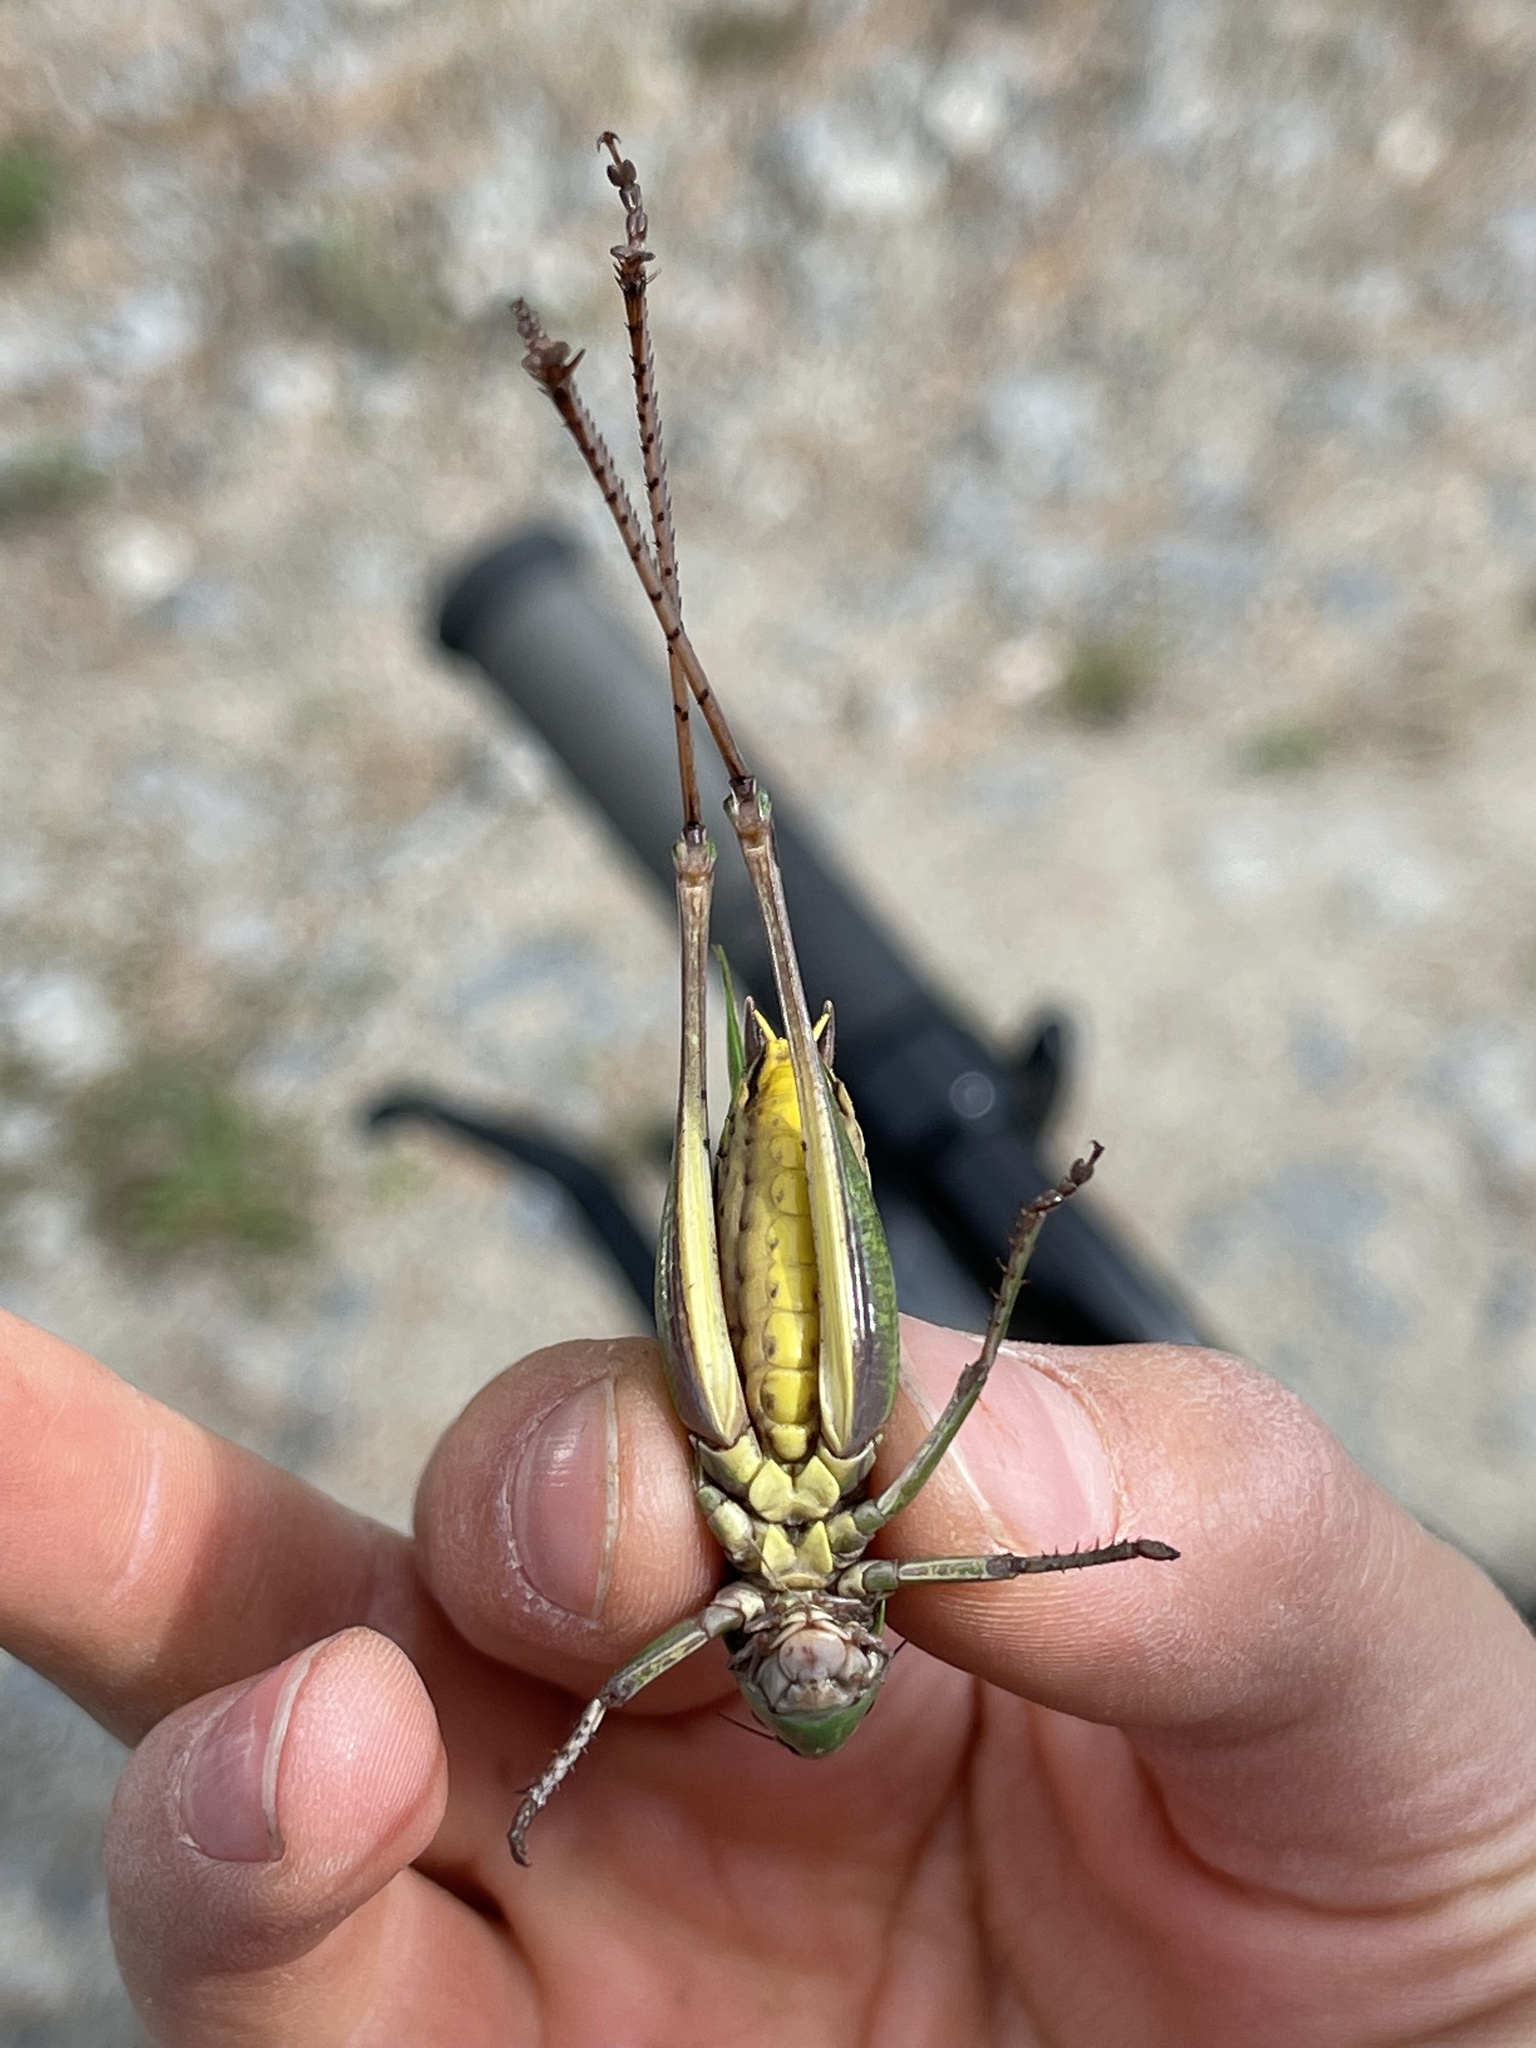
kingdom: Animalia
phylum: Arthropoda
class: Insecta
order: Orthoptera
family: Tettigoniidae
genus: Decticus
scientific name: Decticus verrucivorus
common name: Wart-biter
